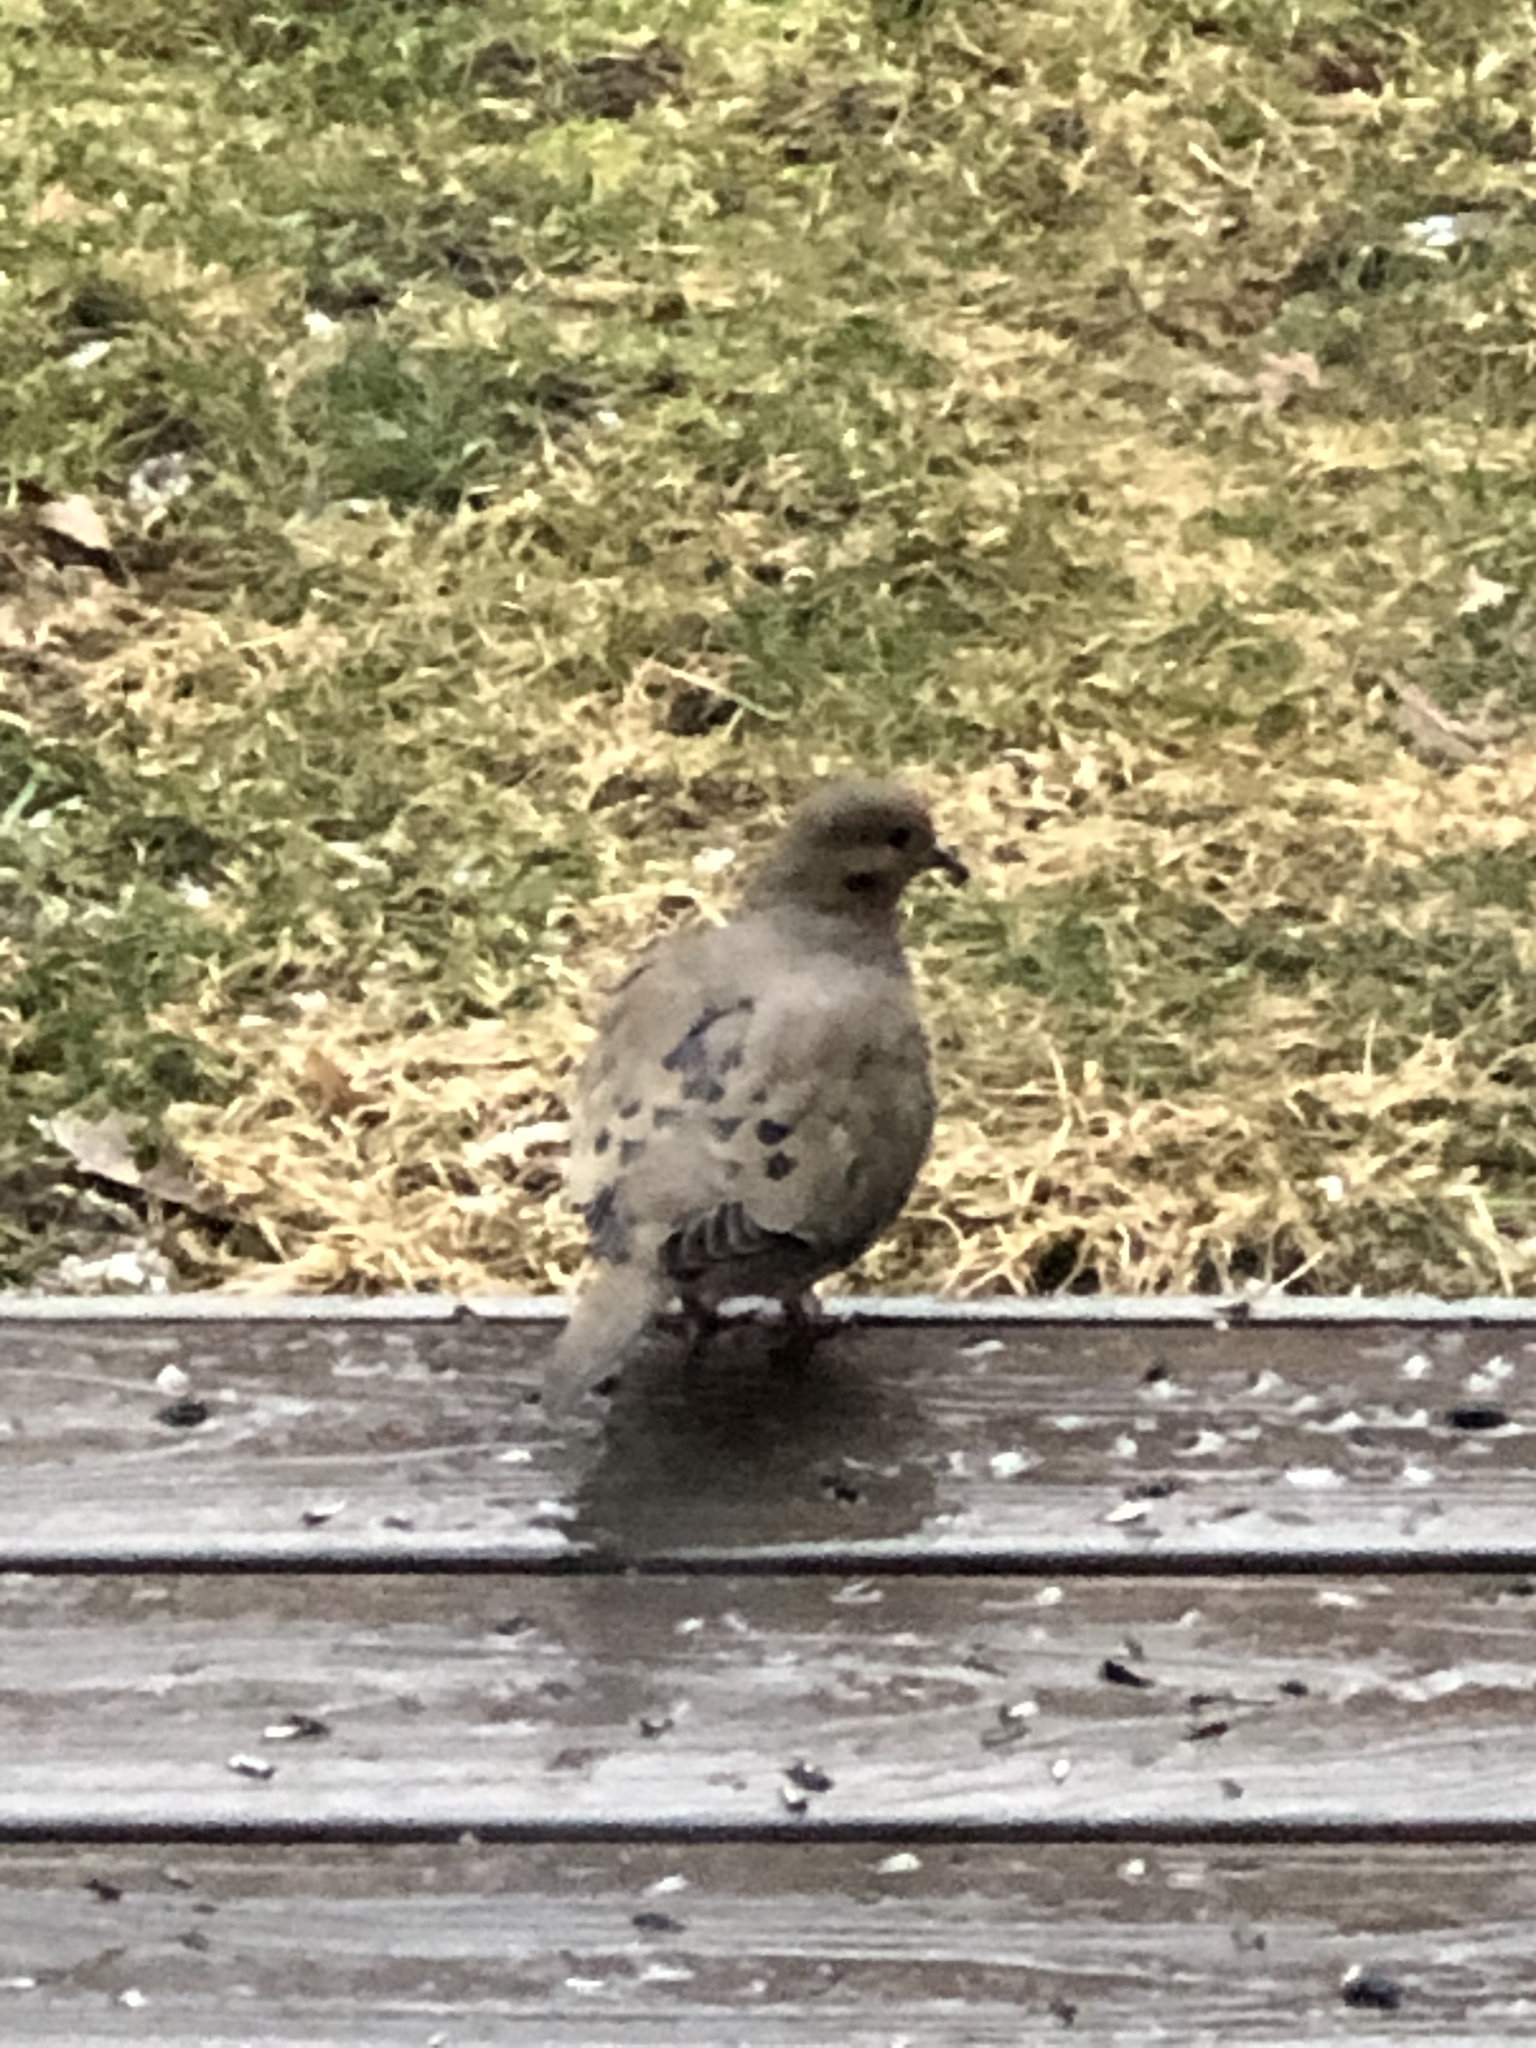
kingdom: Animalia
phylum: Chordata
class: Aves
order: Columbiformes
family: Columbidae
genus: Zenaida
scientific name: Zenaida macroura
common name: Mourning dove
